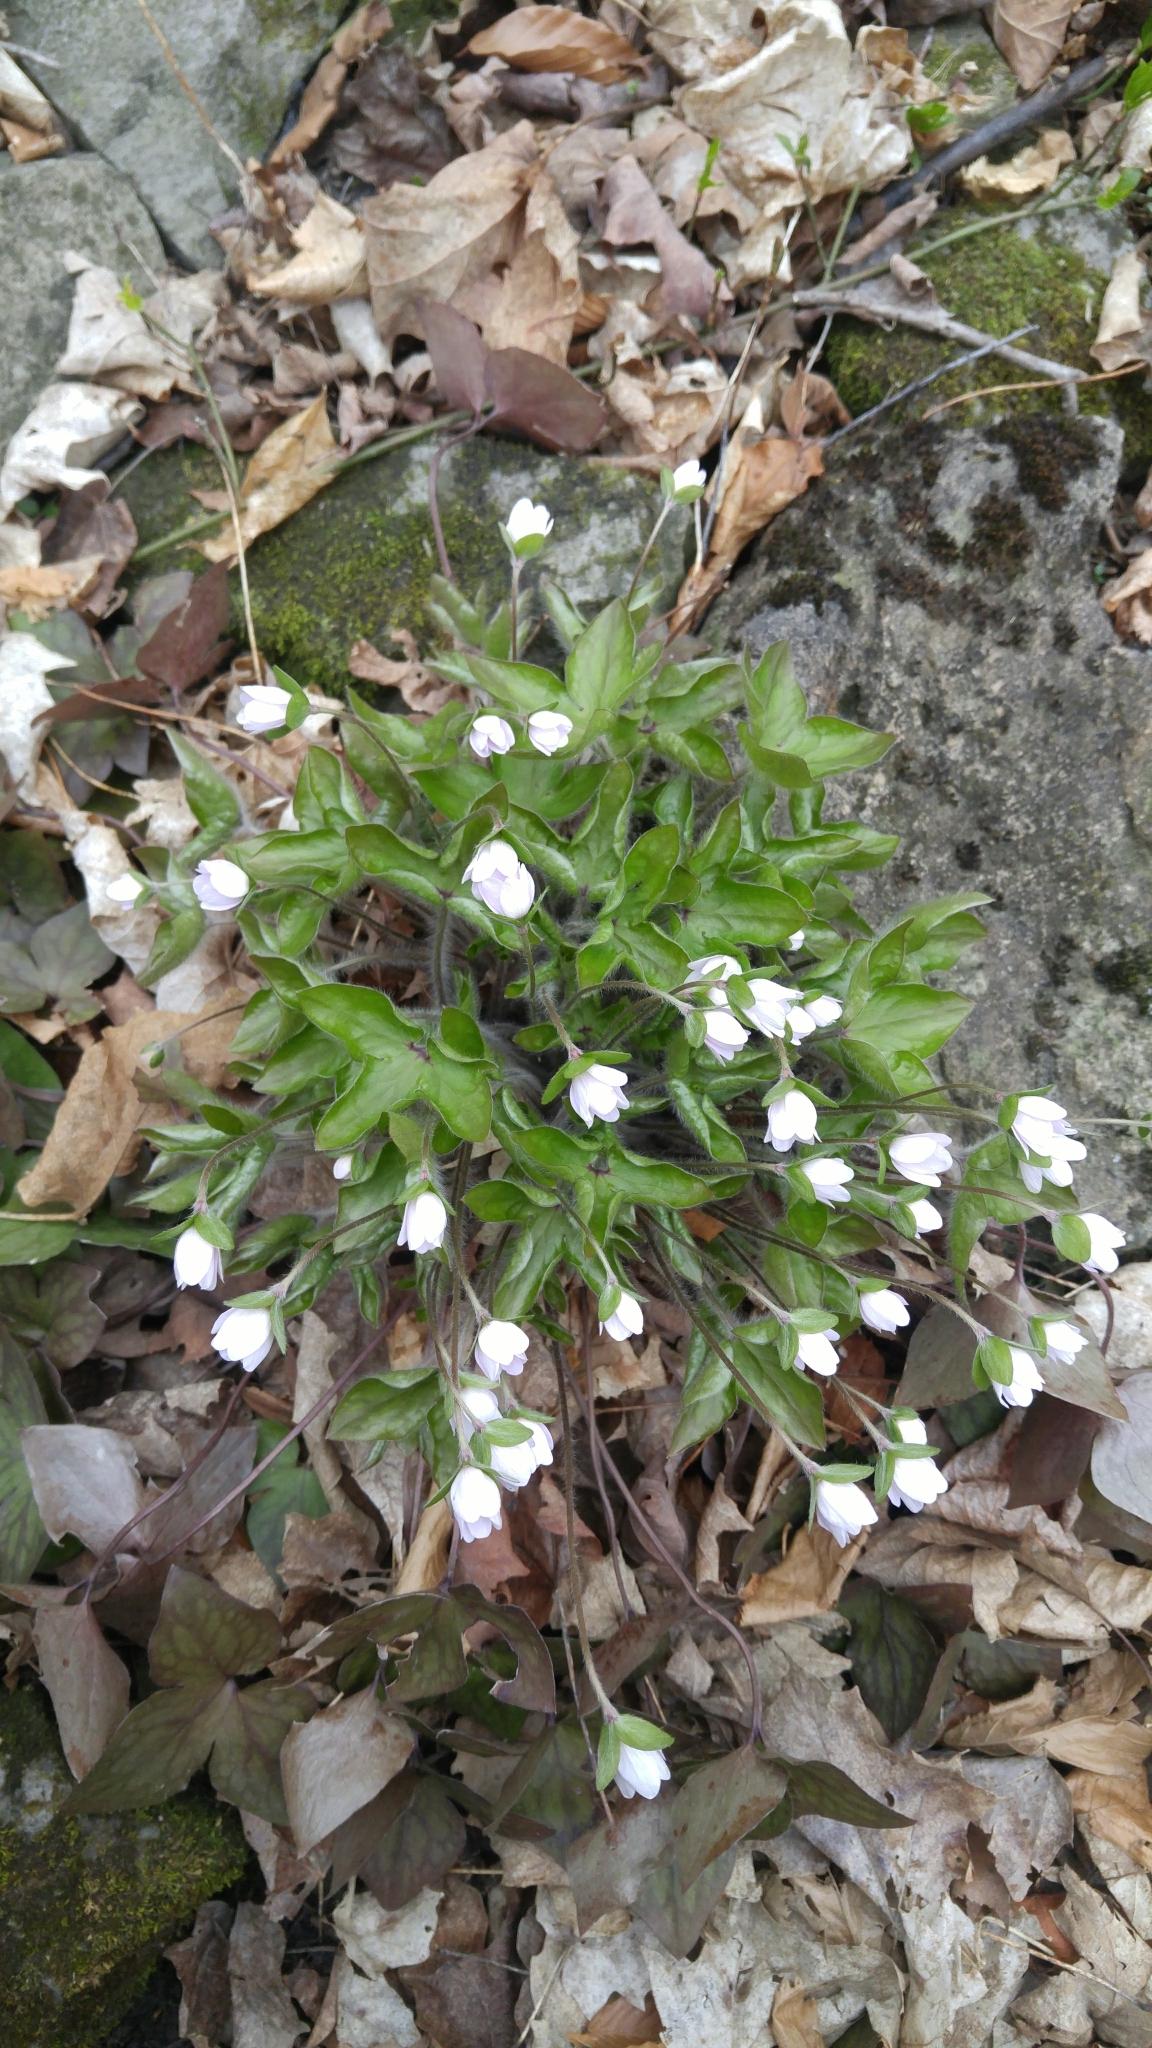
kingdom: Plantae
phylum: Tracheophyta
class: Magnoliopsida
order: Ranunculales
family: Ranunculaceae
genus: Hepatica
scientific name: Hepatica acutiloba
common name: Sharp-lobed hepatica
